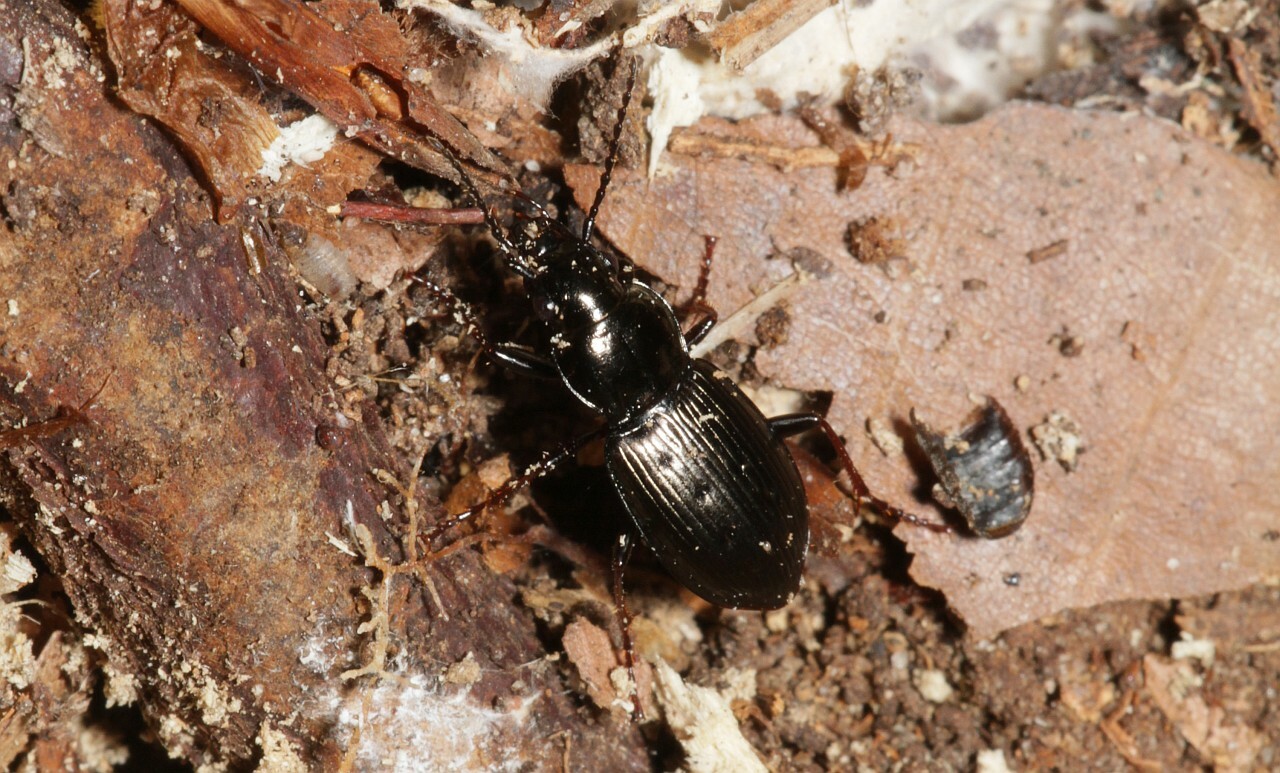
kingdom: Animalia
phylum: Arthropoda
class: Insecta
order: Coleoptera
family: Carabidae
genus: Pterostichus
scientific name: Pterostichus oblongopunctatus
